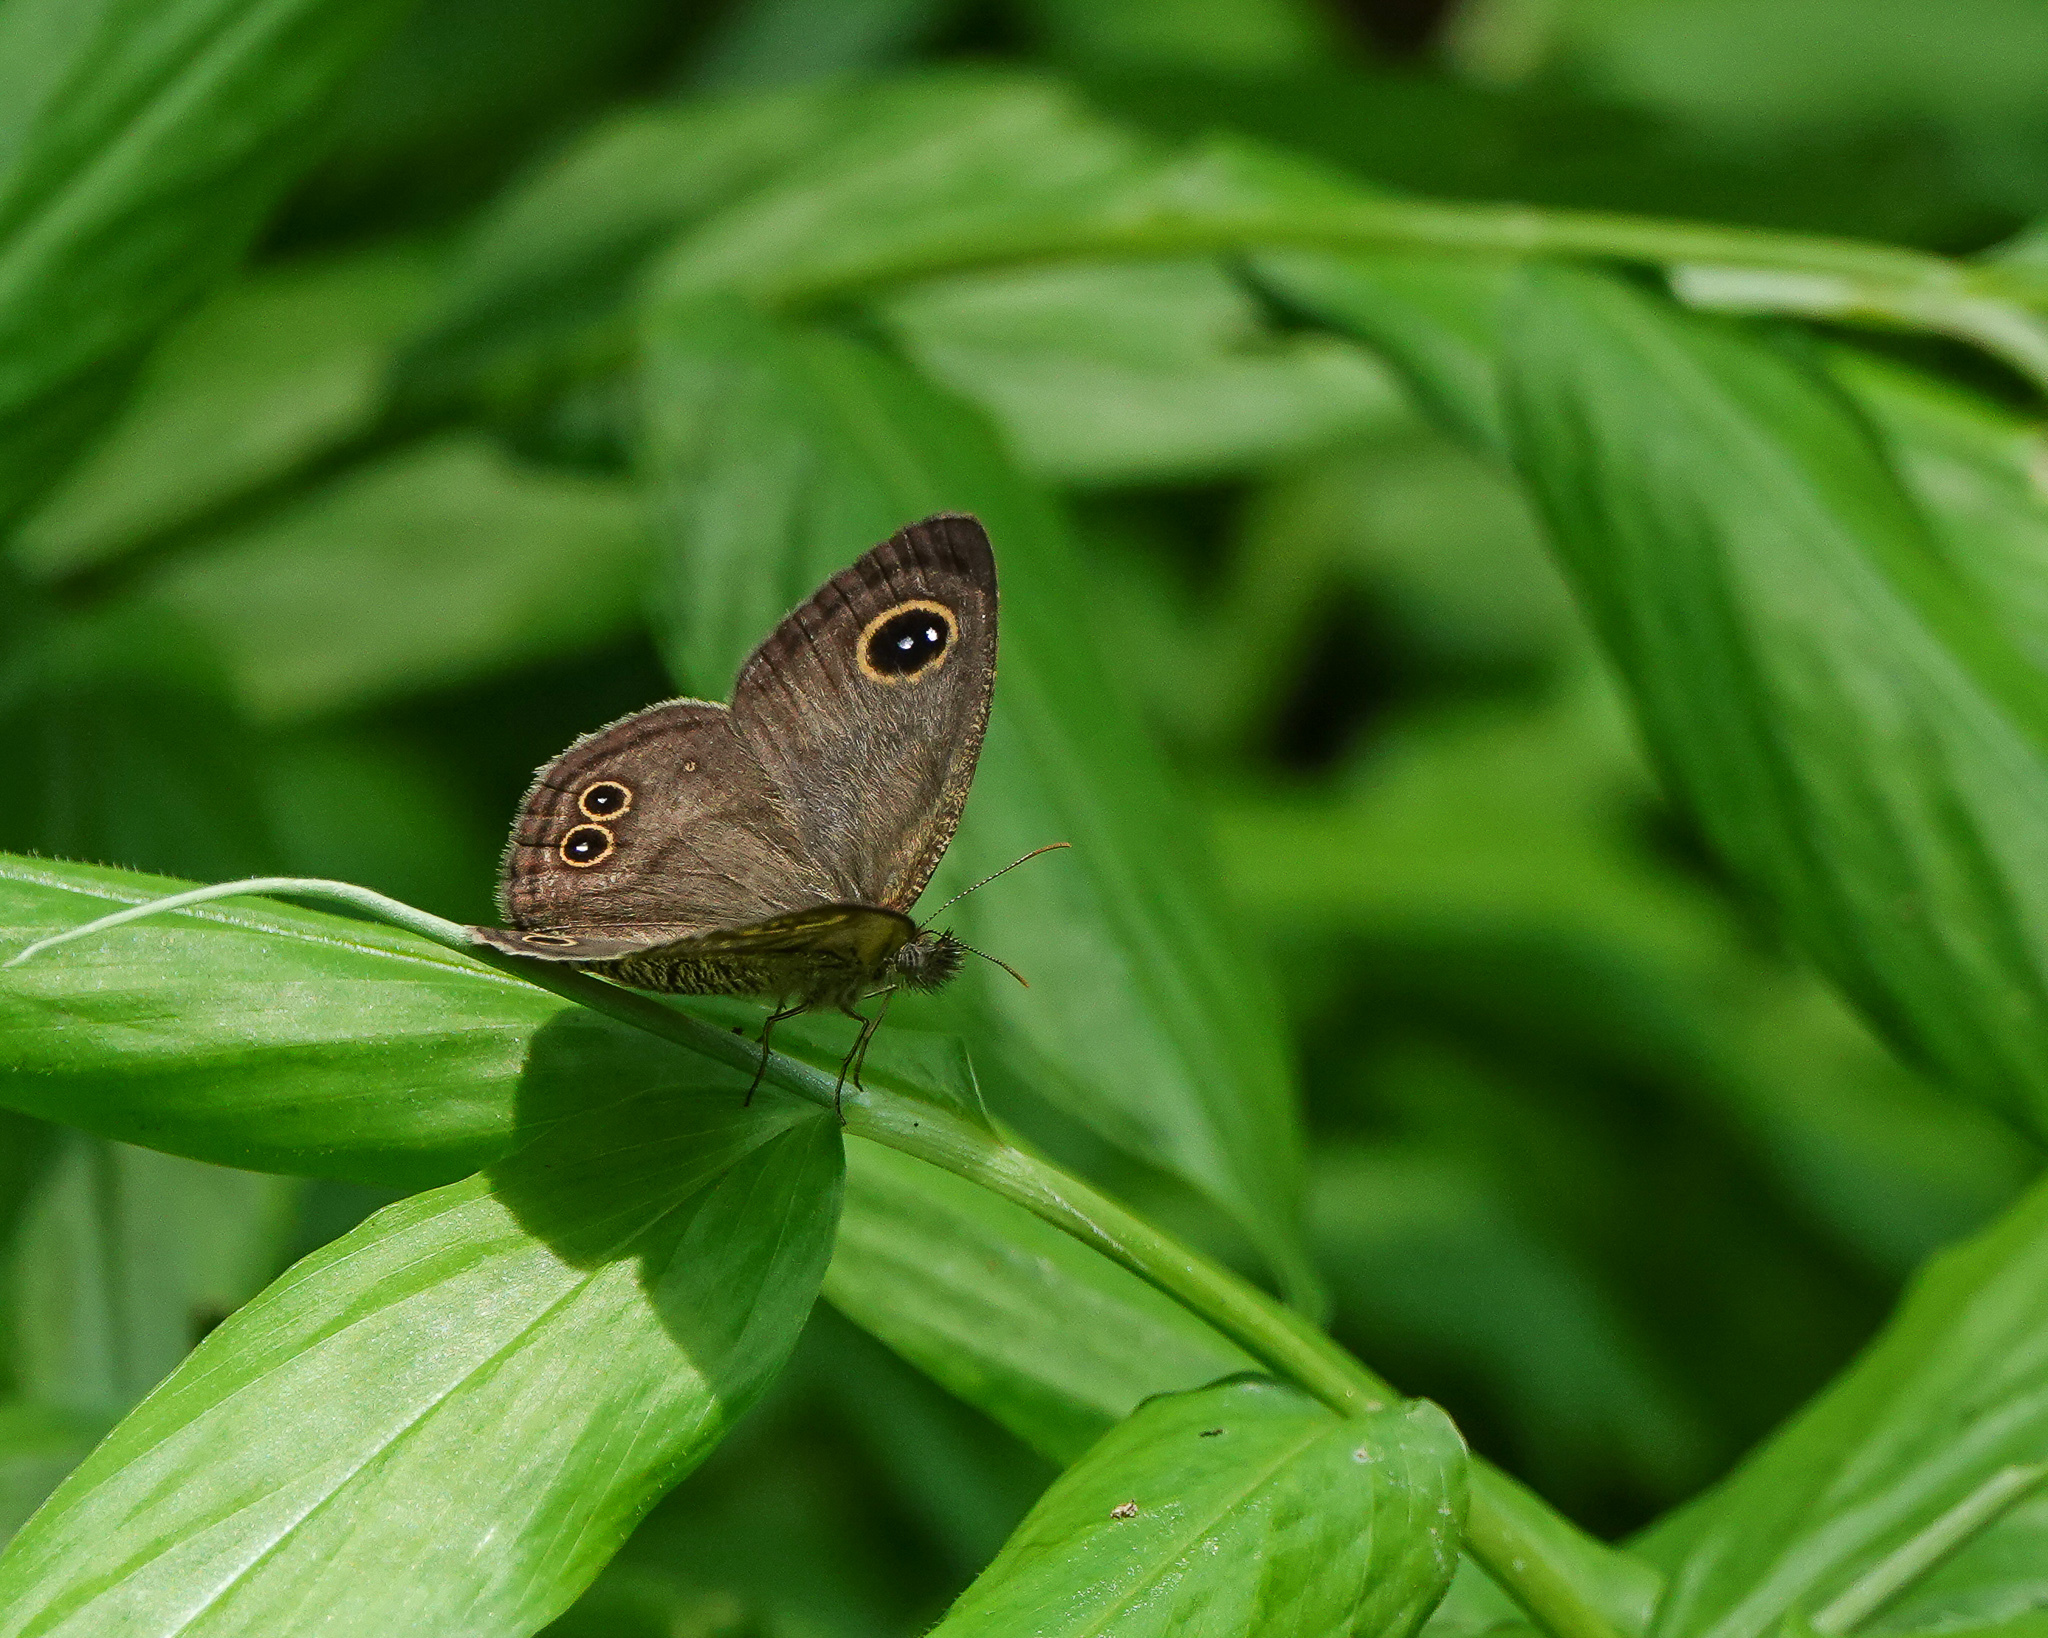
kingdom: Animalia
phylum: Arthropoda
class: Insecta
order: Lepidoptera
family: Nymphalidae
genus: Ypthima
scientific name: Ypthima baldus
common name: Common five-ring
